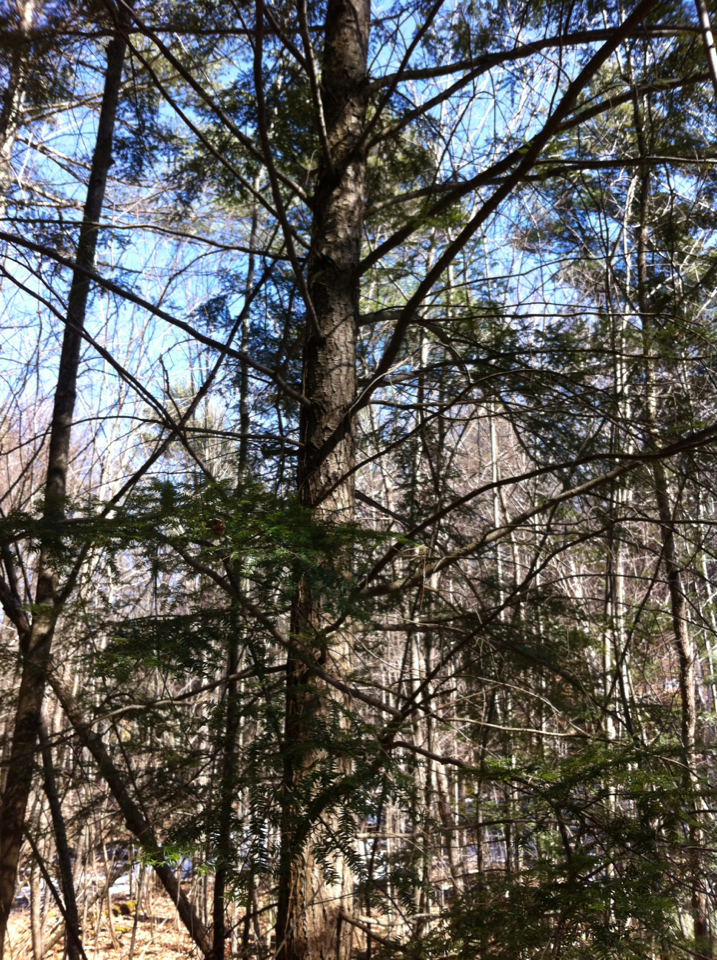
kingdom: Plantae
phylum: Tracheophyta
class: Pinopsida
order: Pinales
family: Pinaceae
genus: Tsuga
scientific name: Tsuga canadensis
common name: Eastern hemlock
